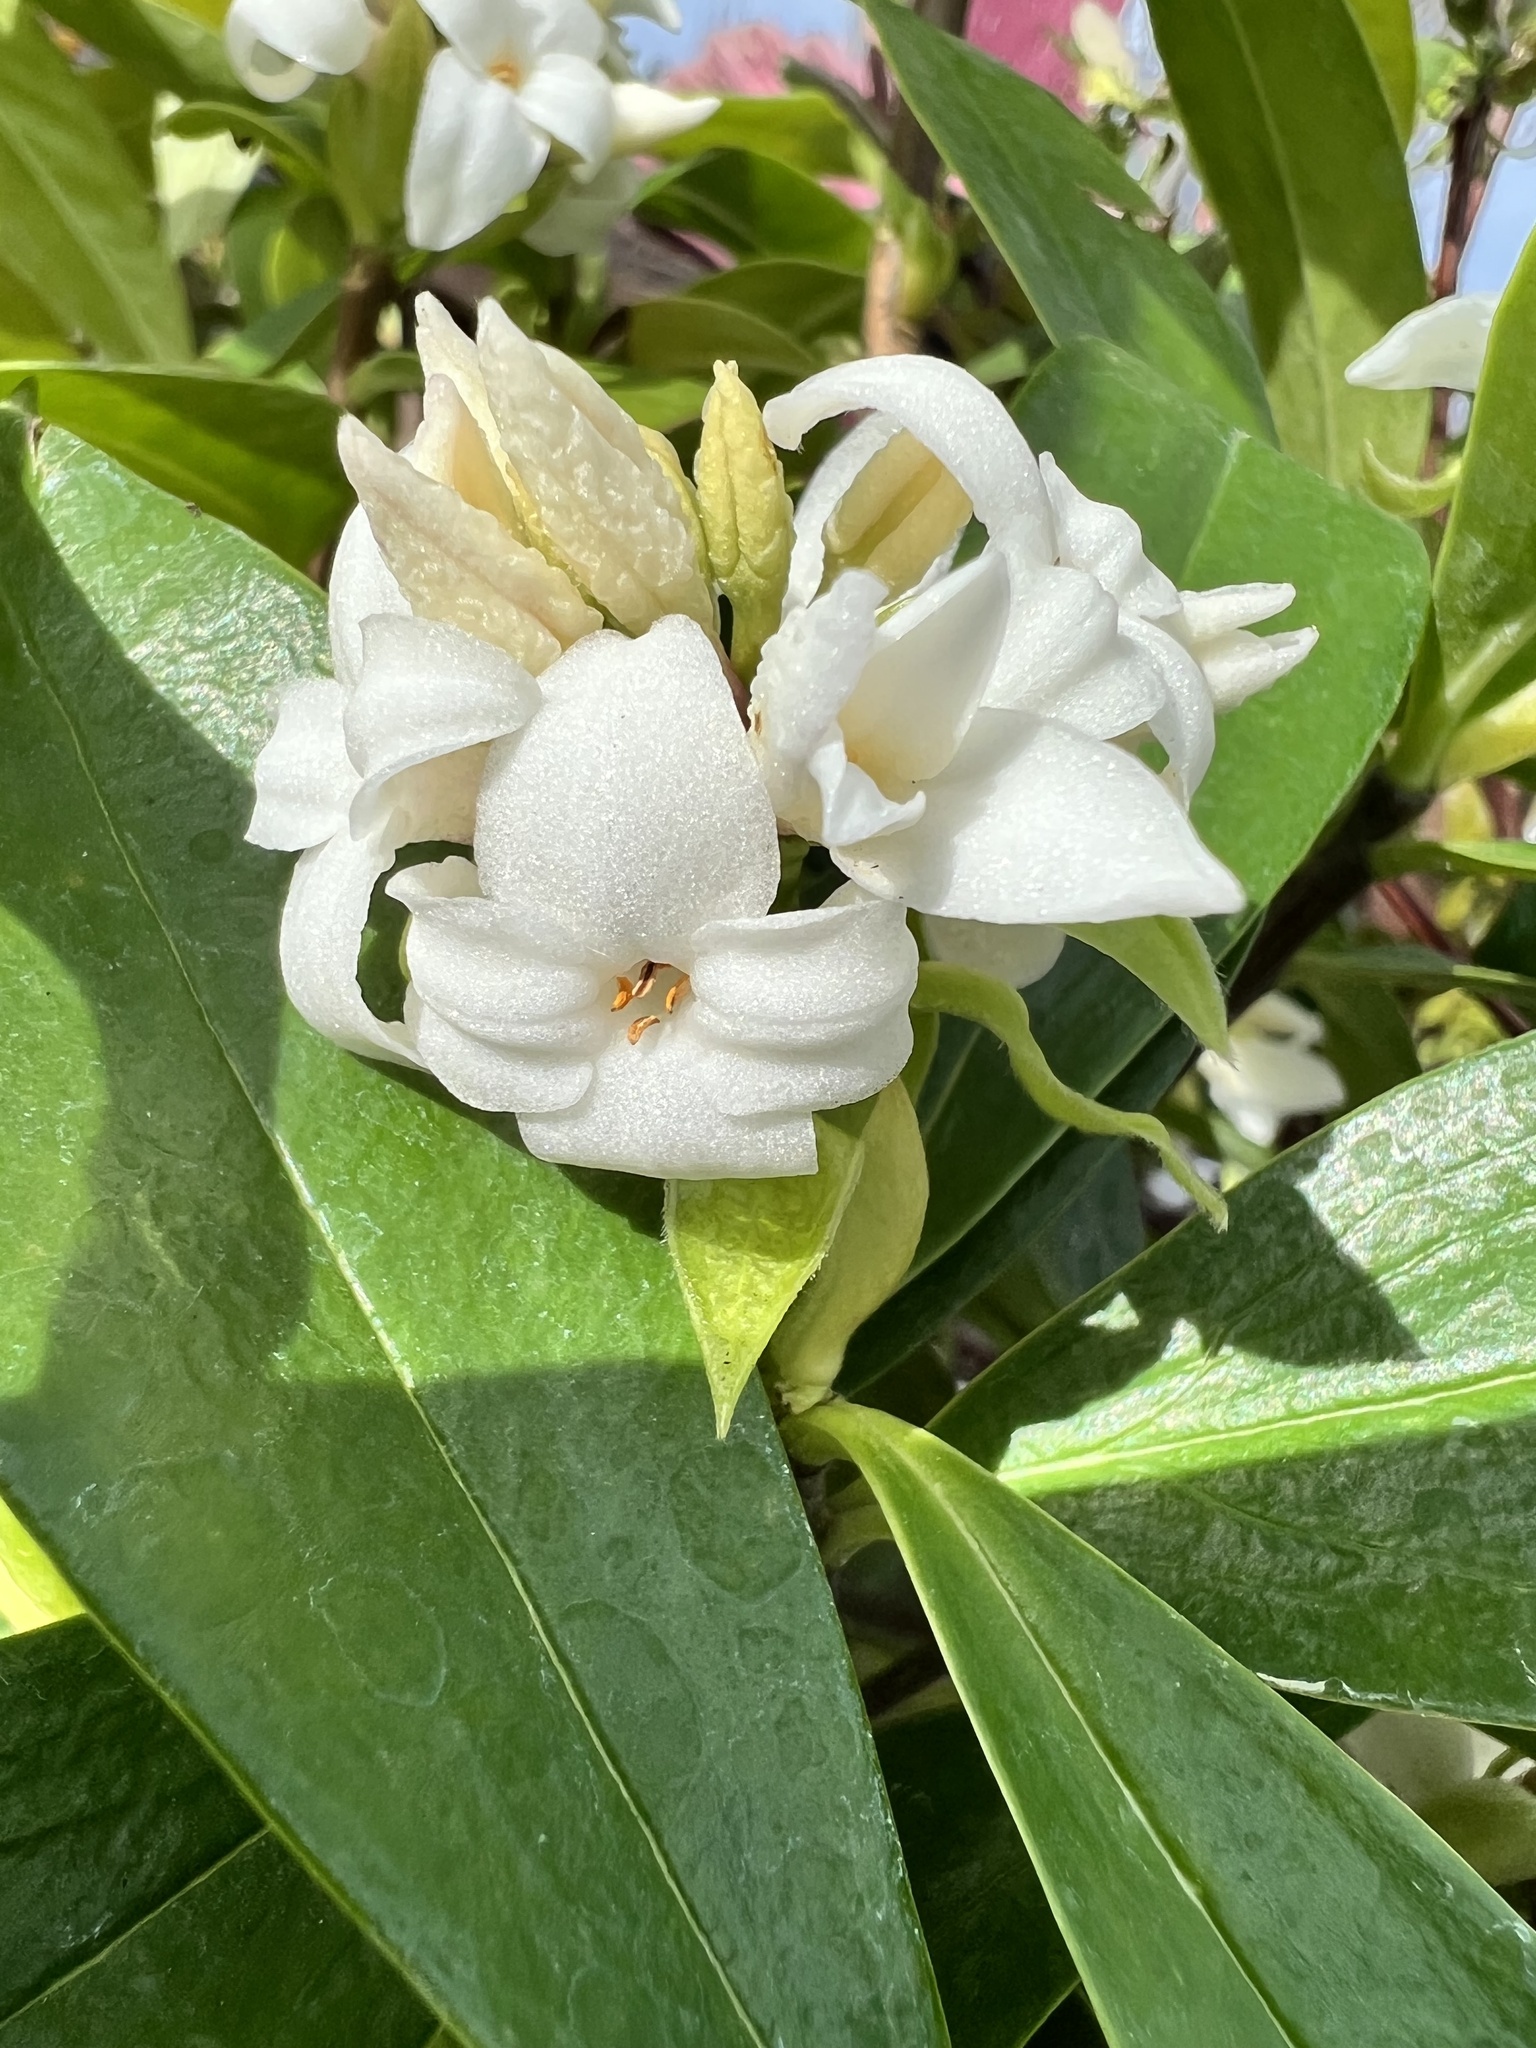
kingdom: Plantae
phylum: Tracheophyta
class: Magnoliopsida
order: Malvales
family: Thymelaeaceae
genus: Daphne
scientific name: Daphne odora
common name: Winter daphne
